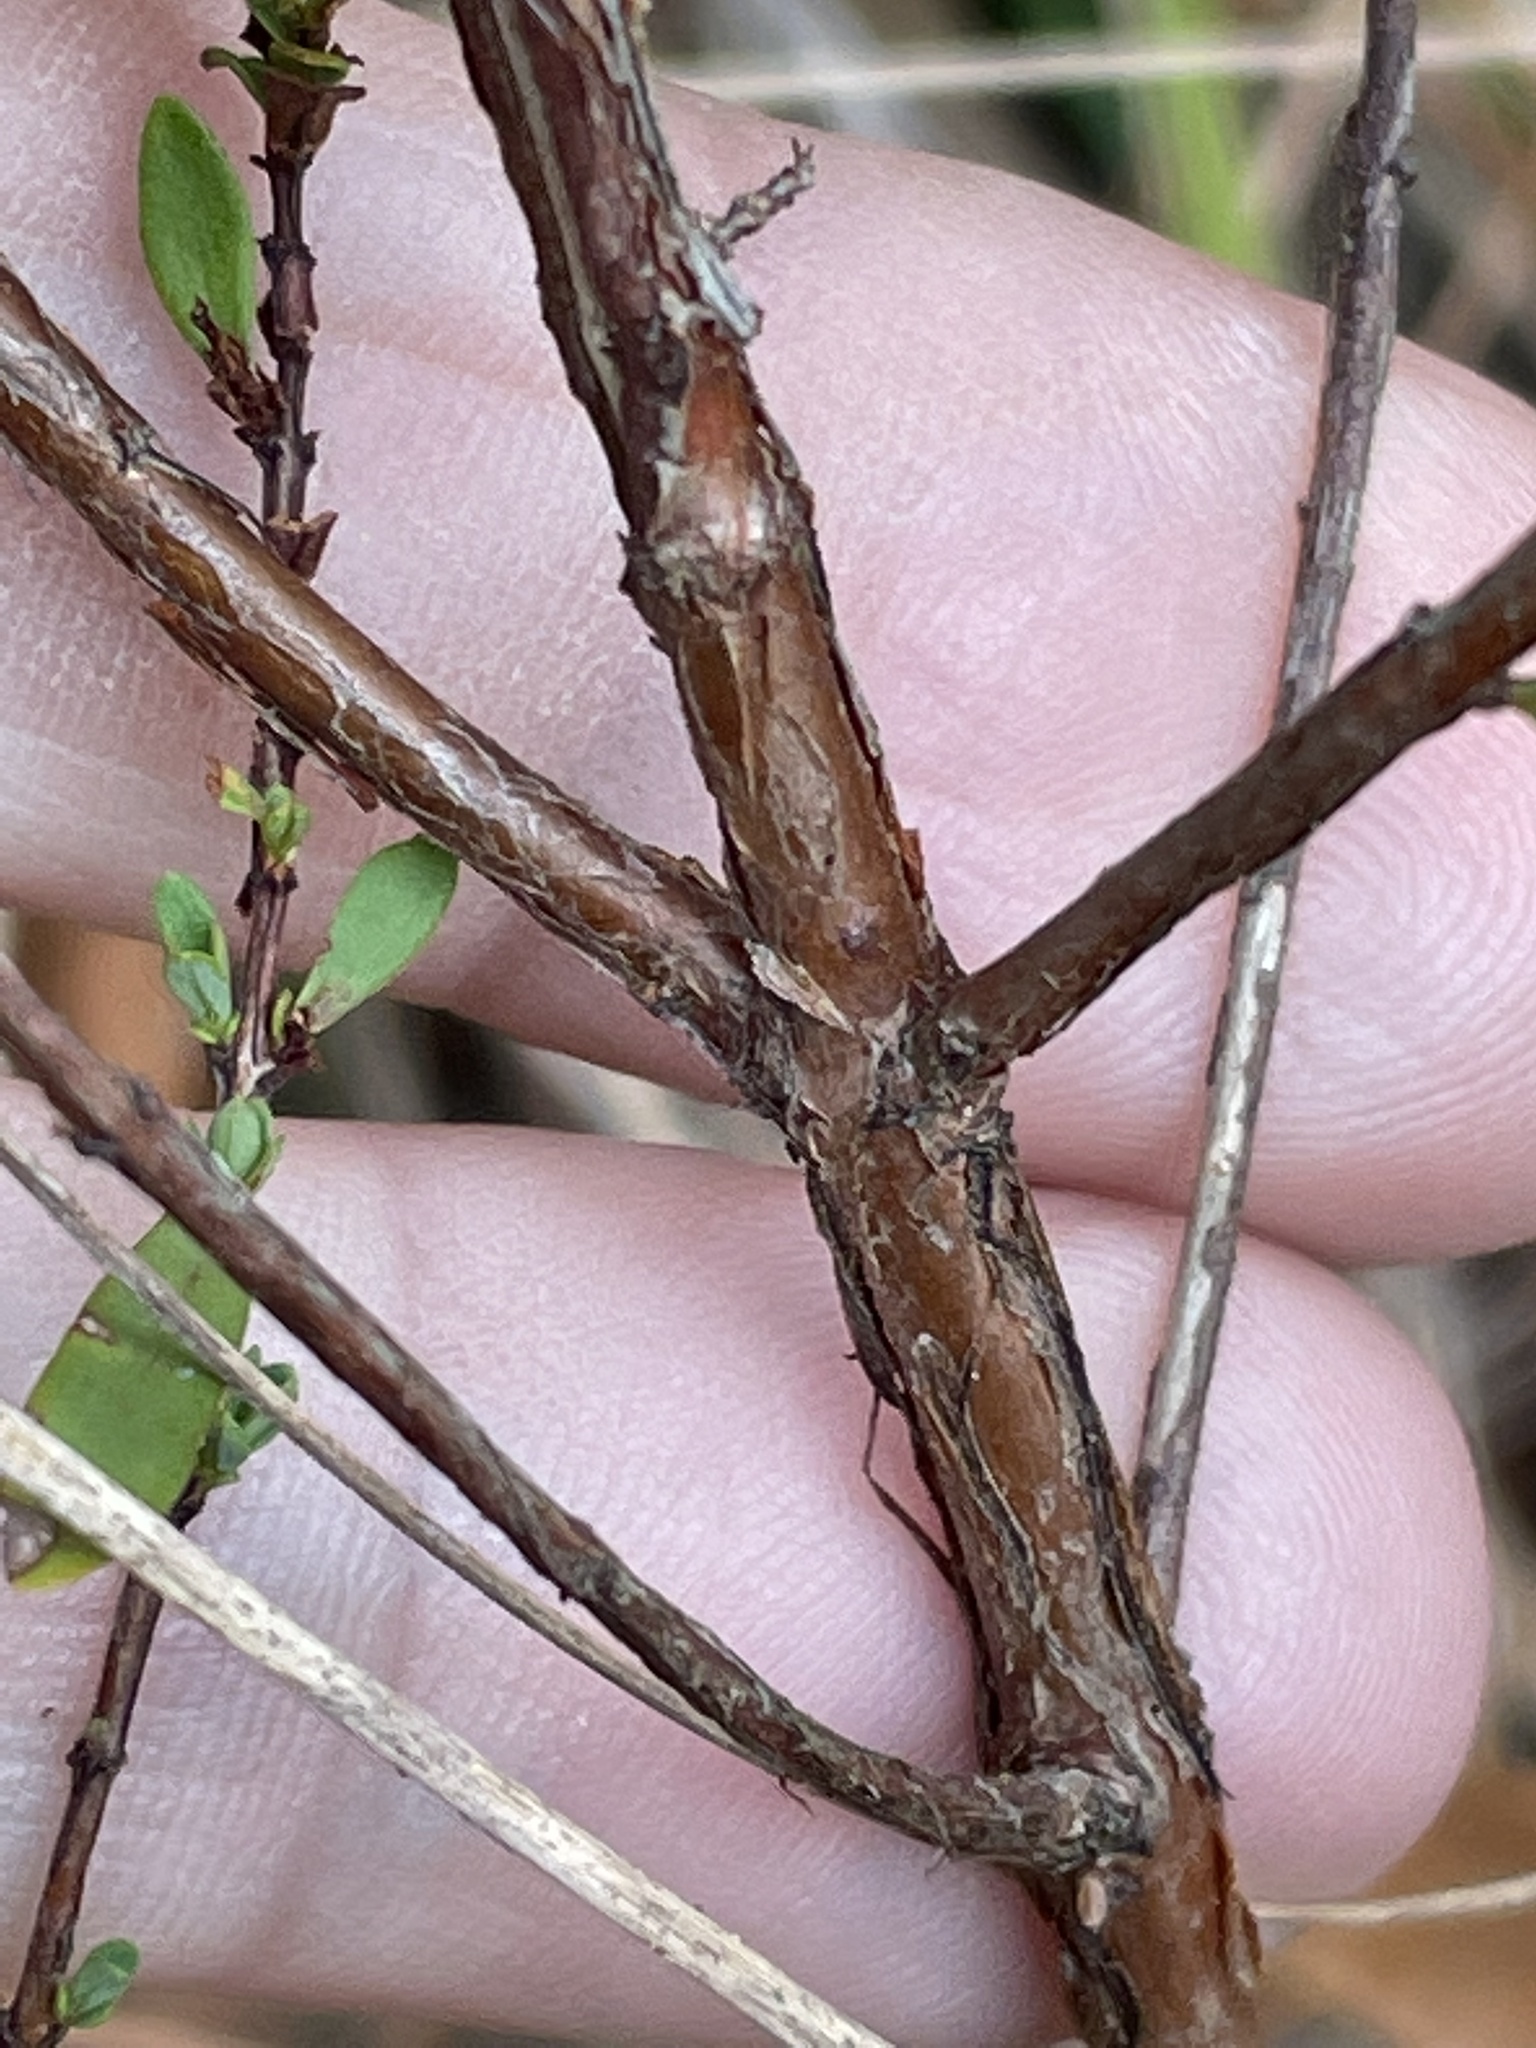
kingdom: Plantae
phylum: Tracheophyta
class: Magnoliopsida
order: Malpighiales
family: Hypericaceae
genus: Hypericum
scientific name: Hypericum hypericoides
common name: St. andrew's cross
